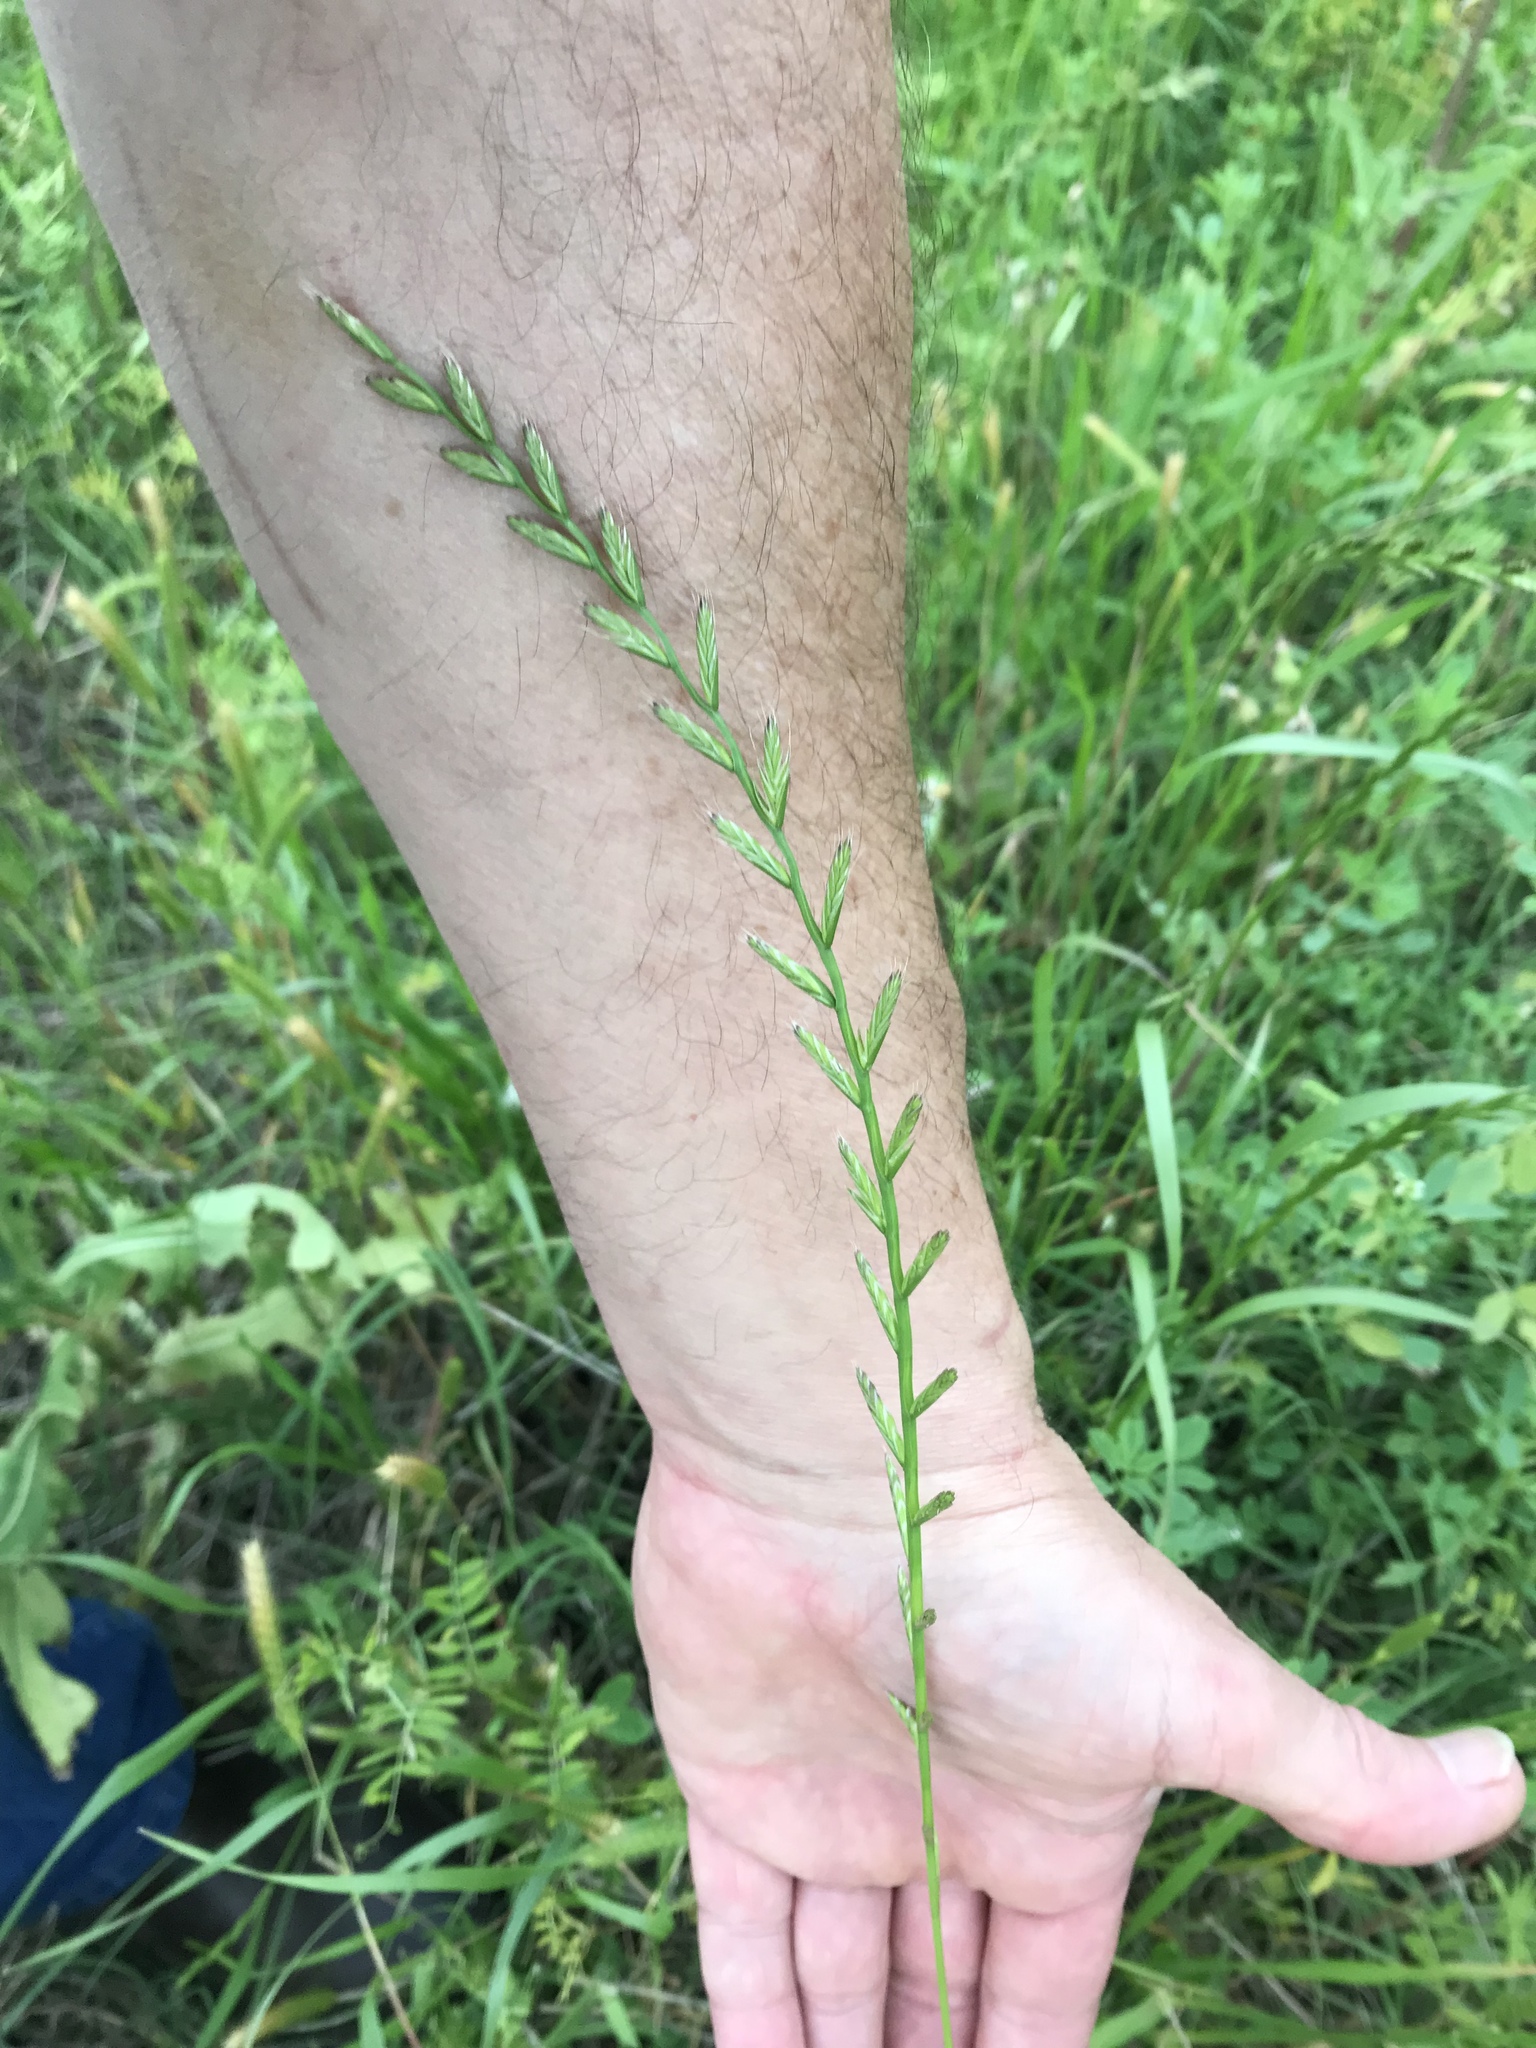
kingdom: Plantae
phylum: Tracheophyta
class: Liliopsida
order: Poales
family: Poaceae
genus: Lolium
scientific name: Lolium perenne
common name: Perennial ryegrass
